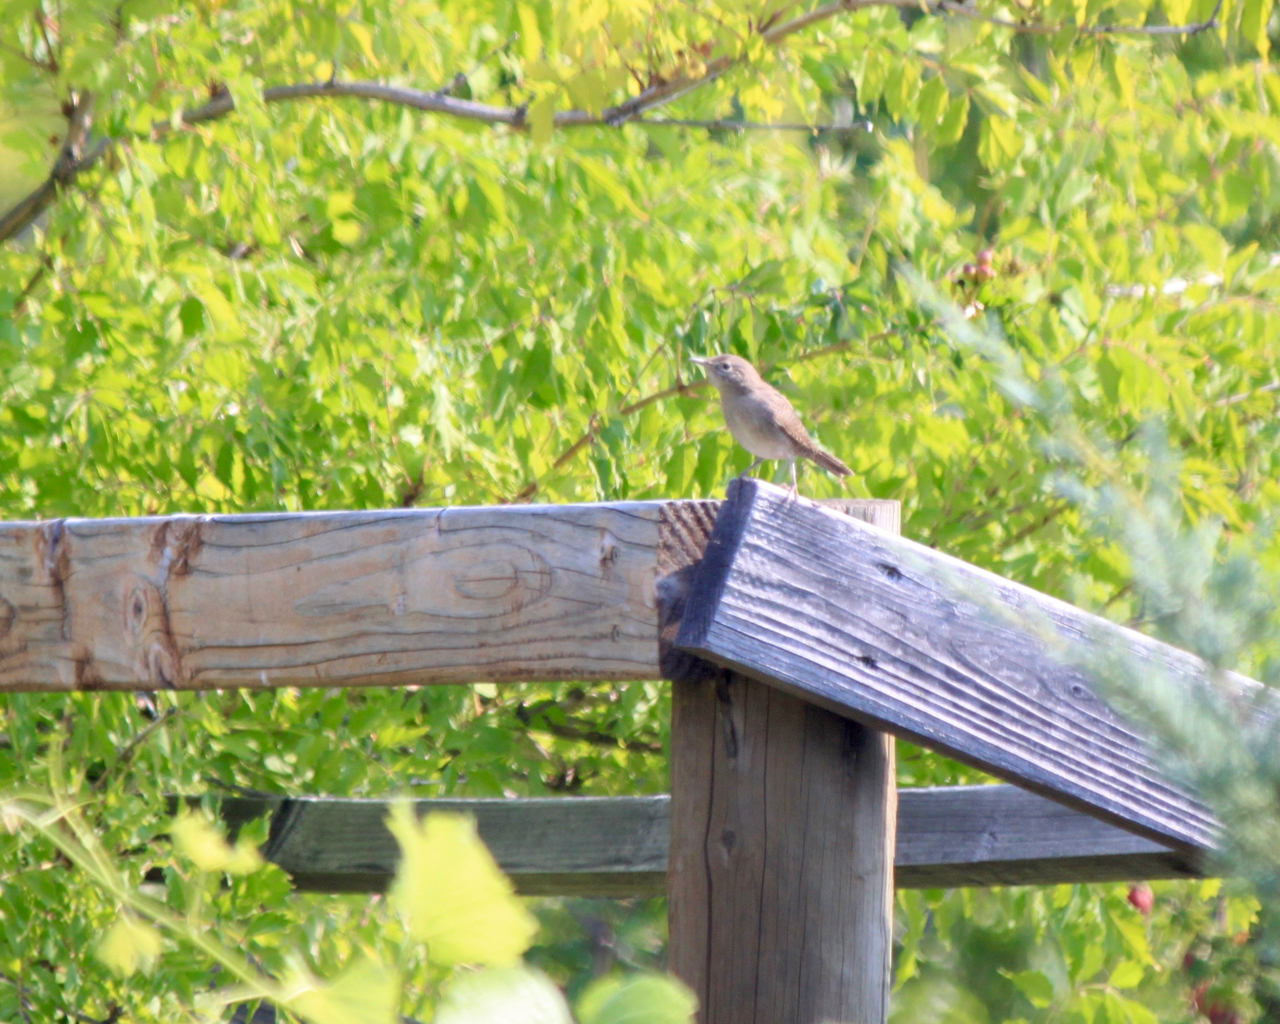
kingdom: Animalia
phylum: Chordata
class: Aves
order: Passeriformes
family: Troglodytidae
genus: Troglodytes
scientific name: Troglodytes aedon
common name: House wren
